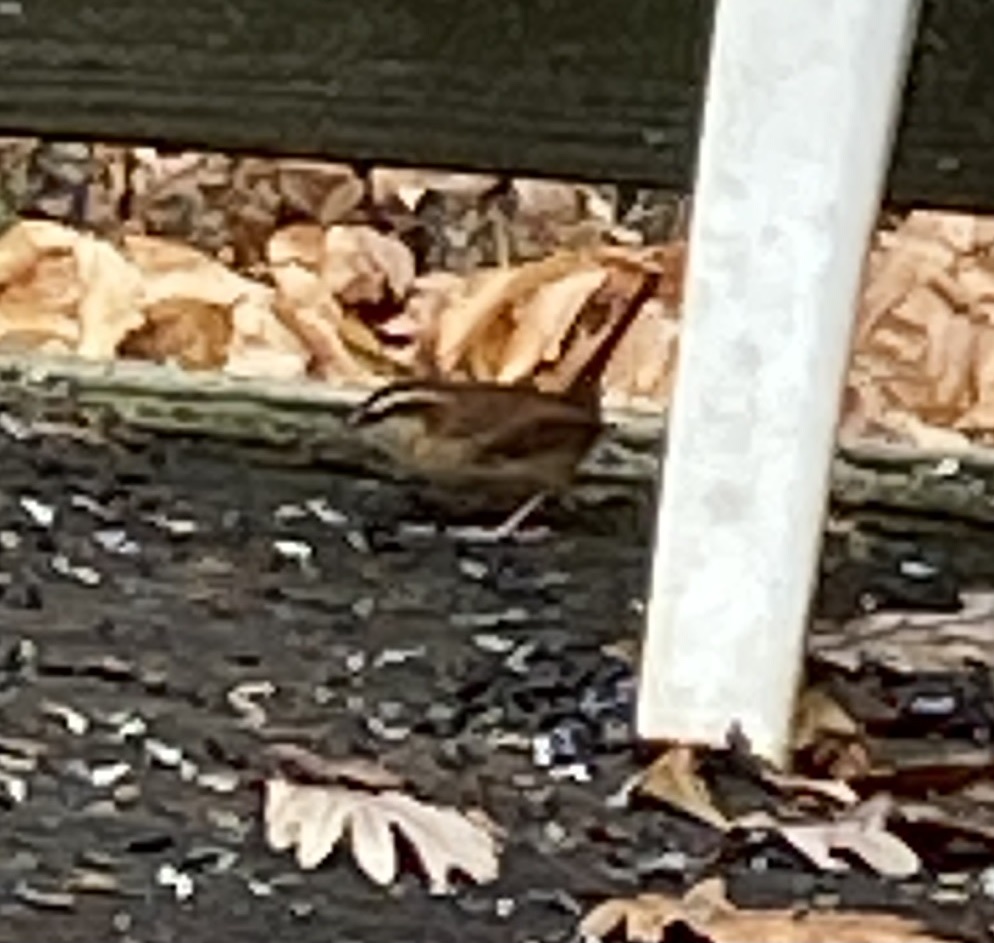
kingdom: Animalia
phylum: Chordata
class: Aves
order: Passeriformes
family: Troglodytidae
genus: Thryothorus
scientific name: Thryothorus ludovicianus
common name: Carolina wren
